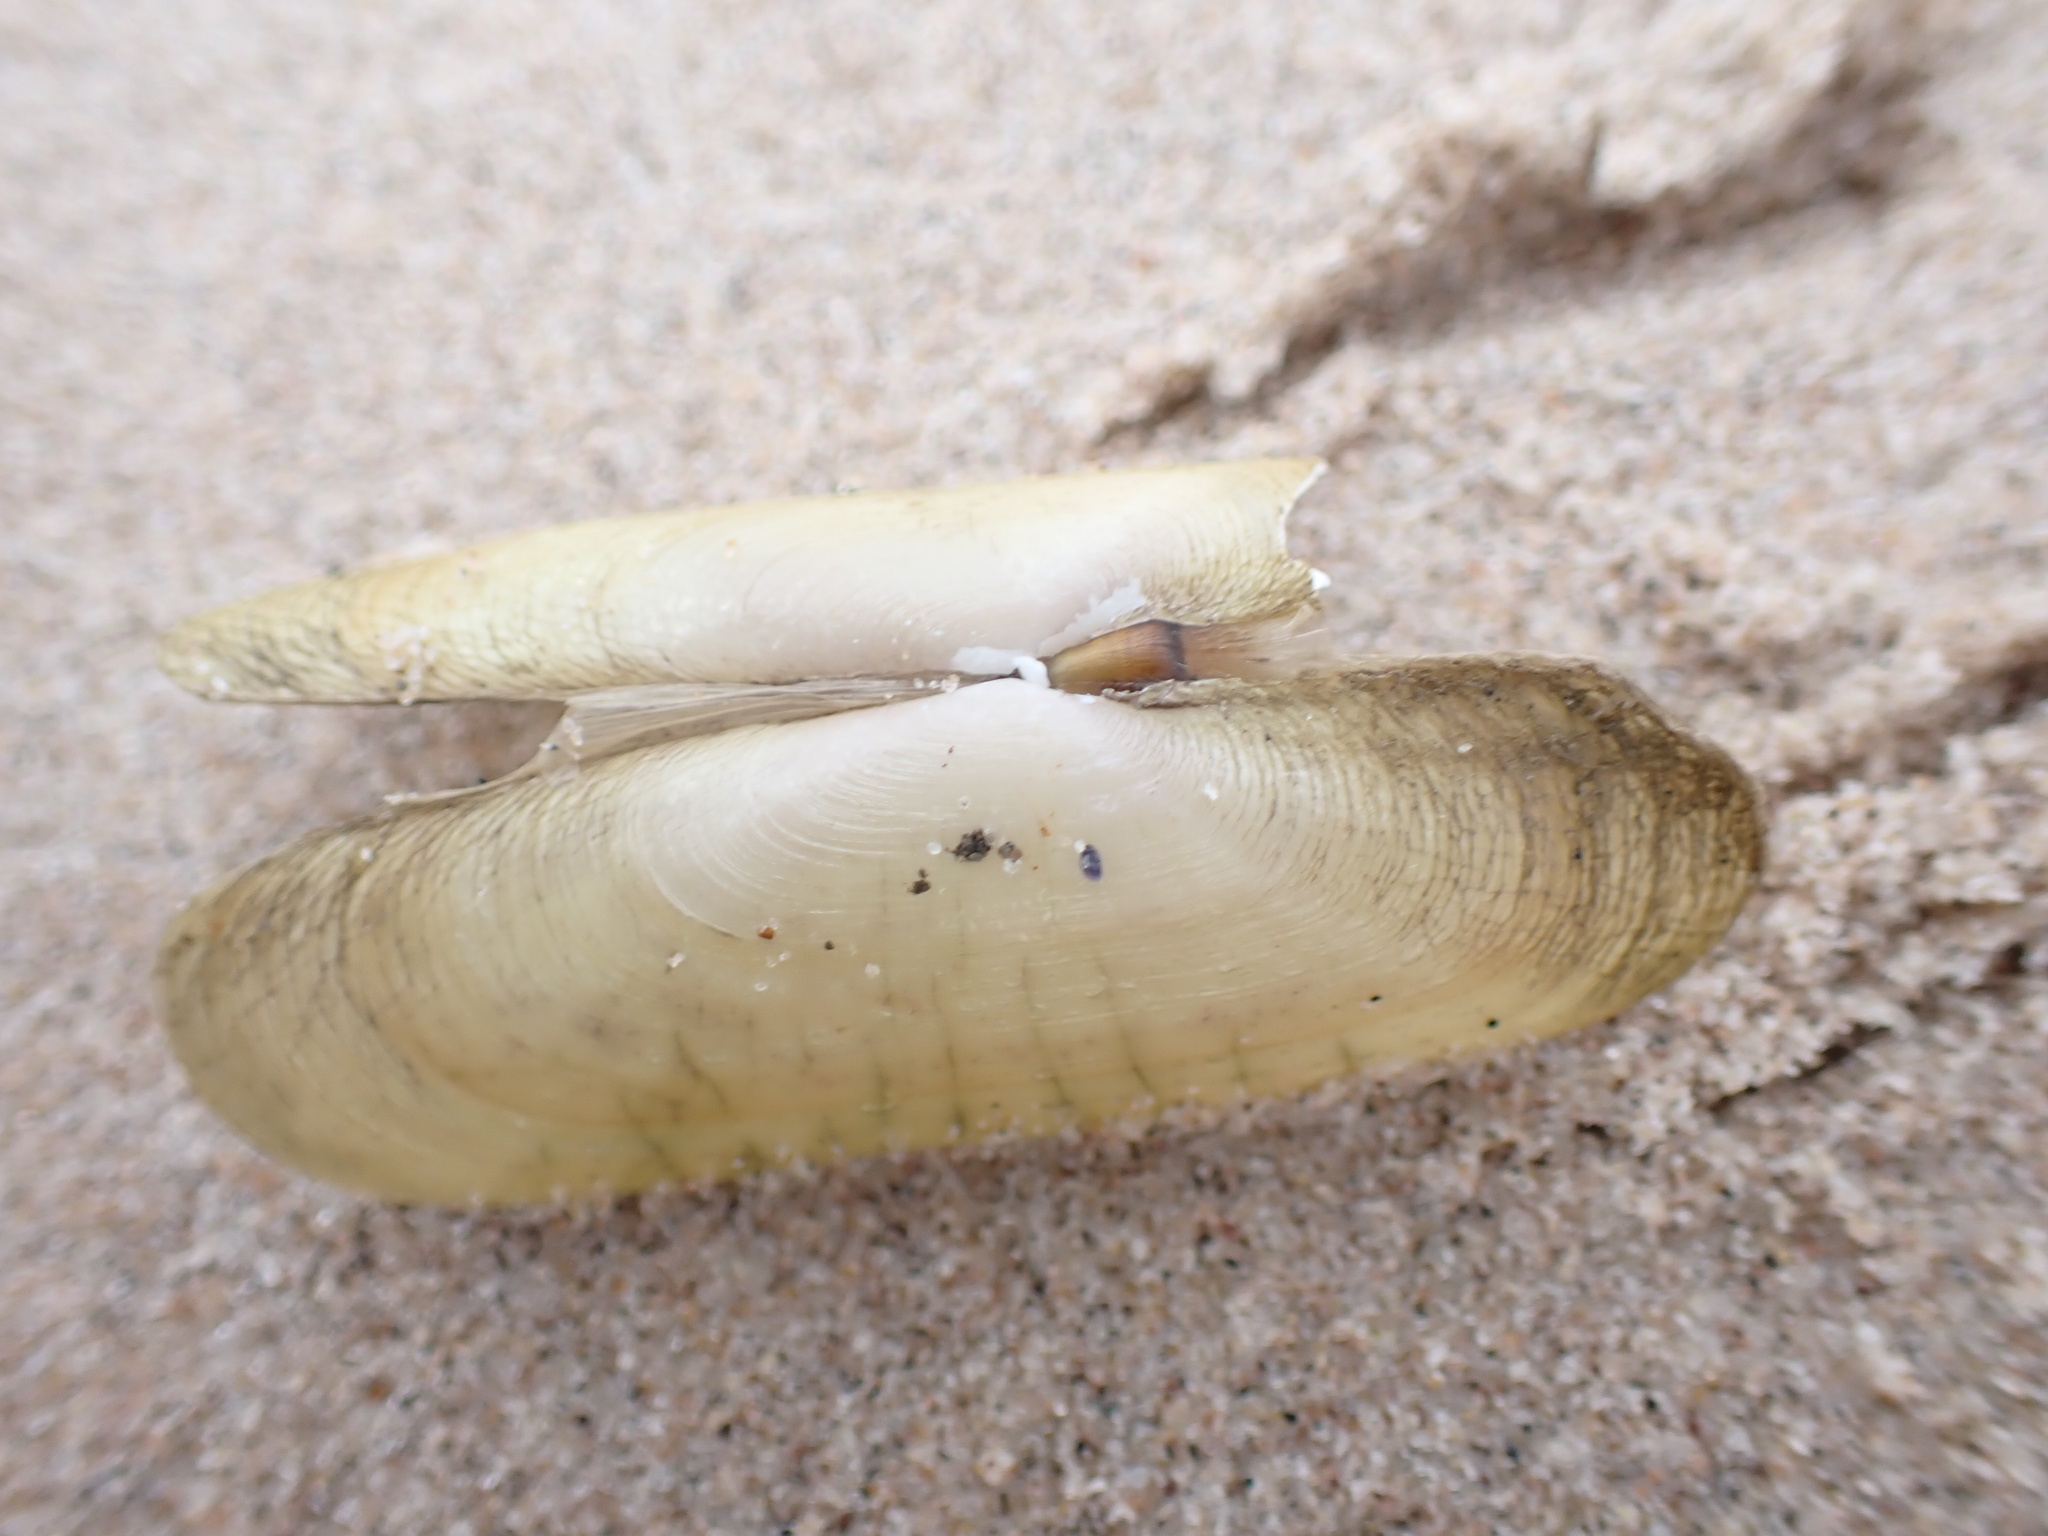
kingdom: Animalia
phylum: Mollusca
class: Bivalvia
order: Cardiida
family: Solecurtidae
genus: Tagelus
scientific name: Tagelus plebeius
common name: Stout tagelus
